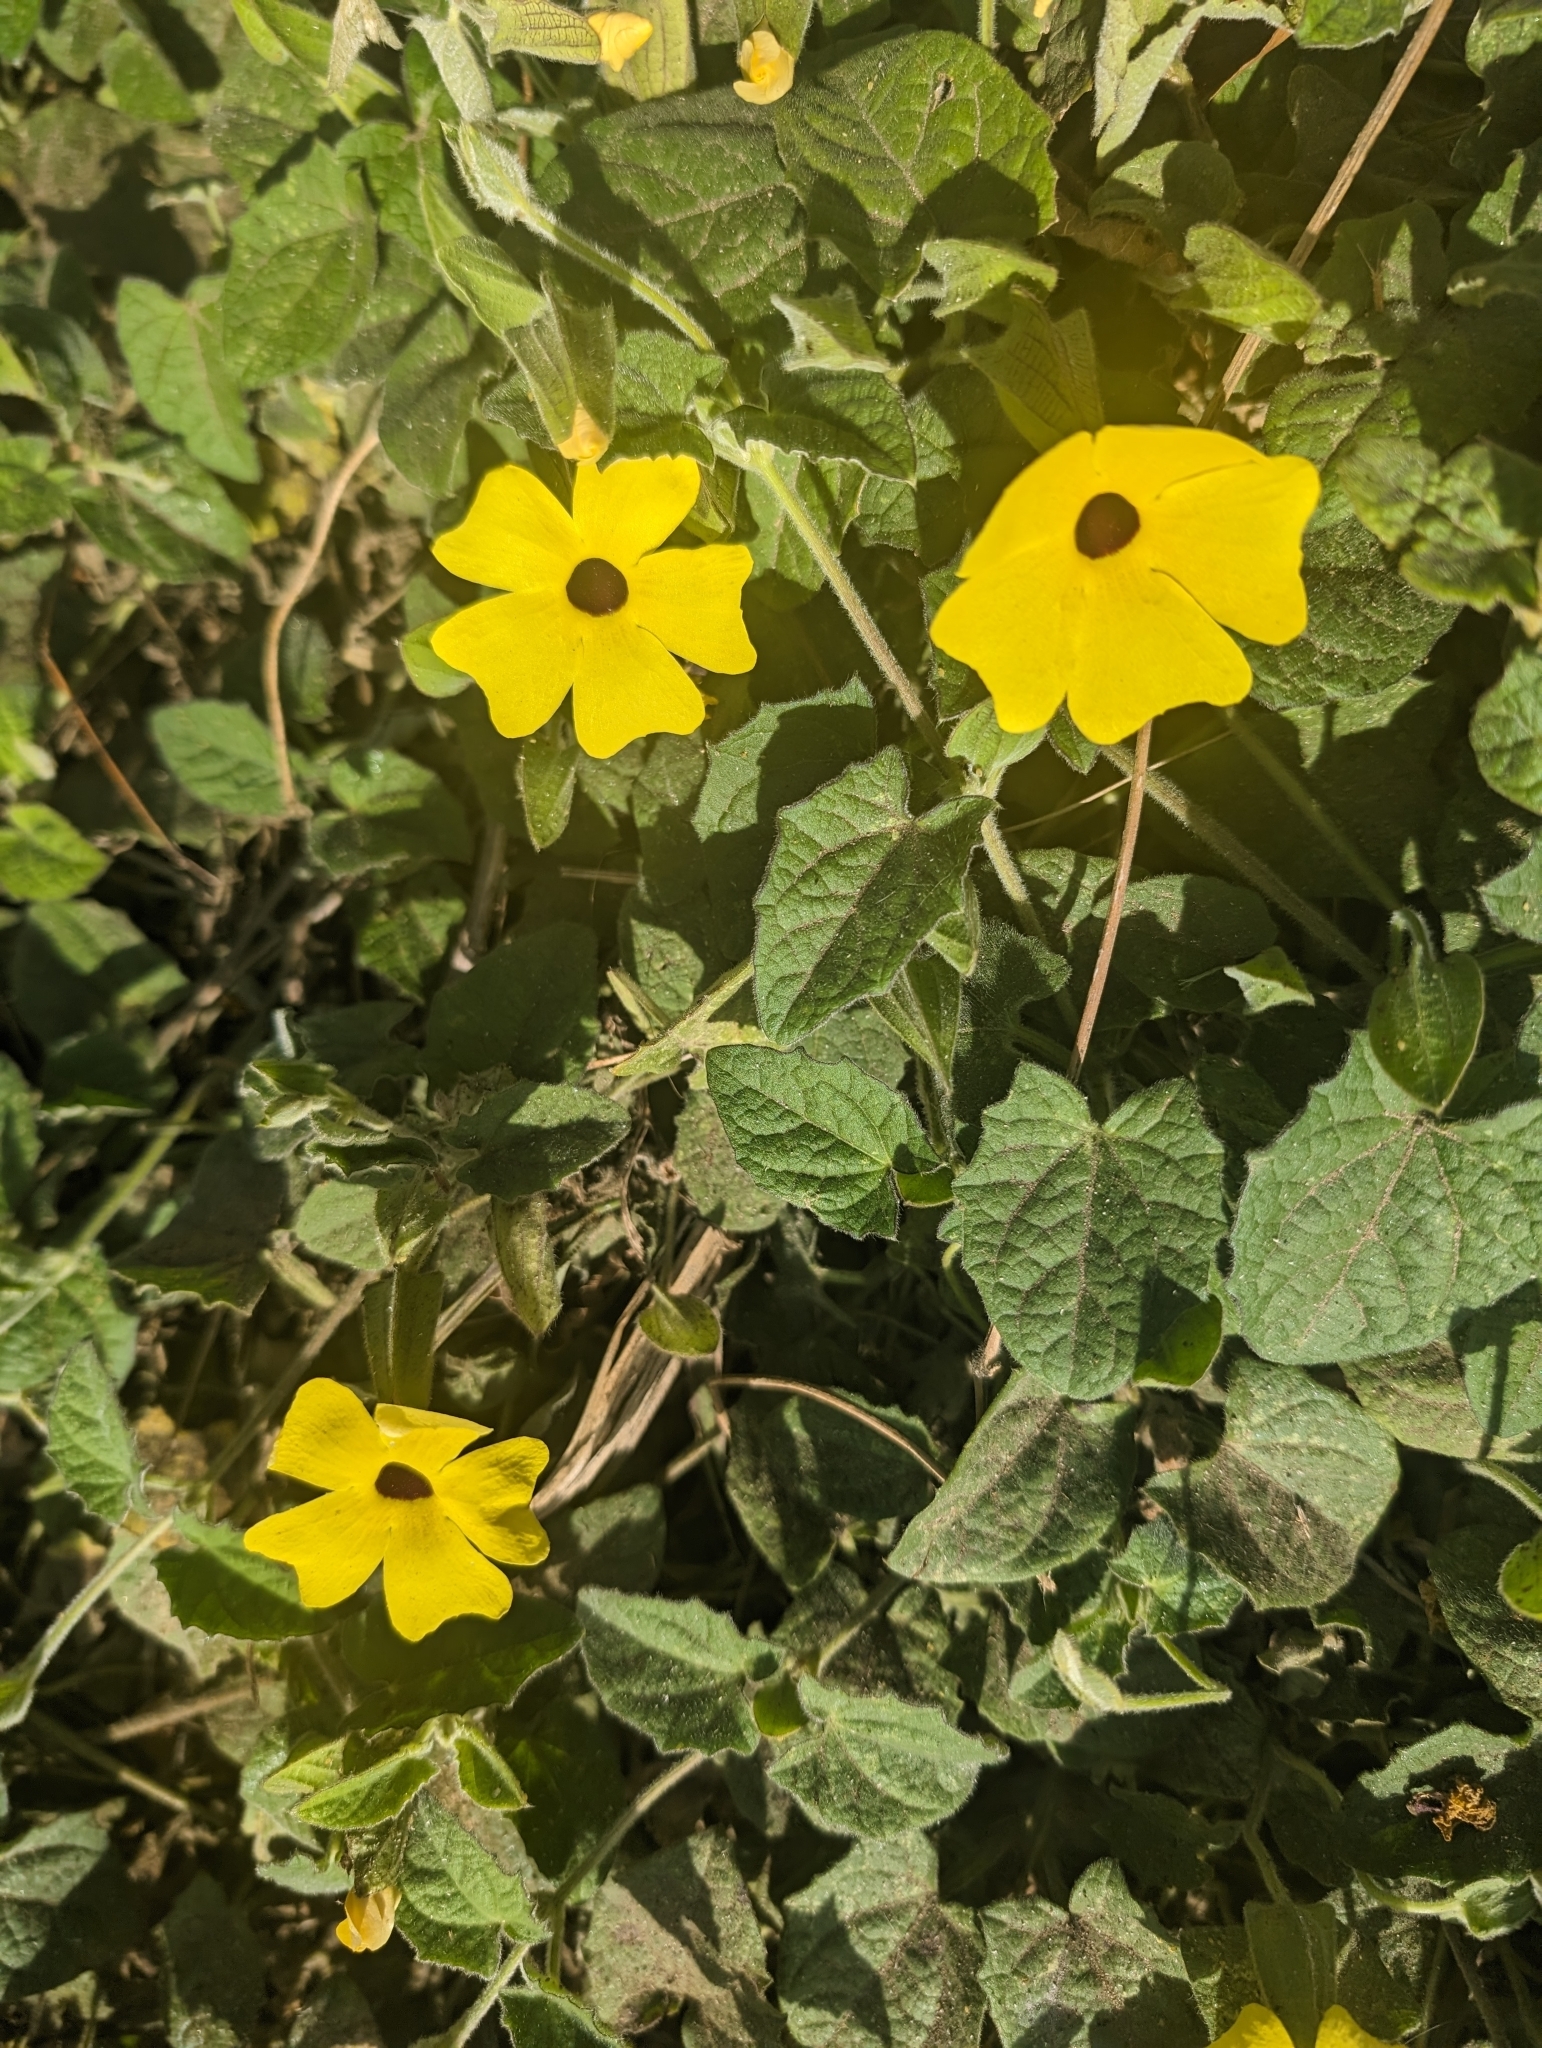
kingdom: Plantae
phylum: Tracheophyta
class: Magnoliopsida
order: Lamiales
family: Acanthaceae
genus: Thunbergia
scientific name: Thunbergia alata
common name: Blackeyed susan vine
